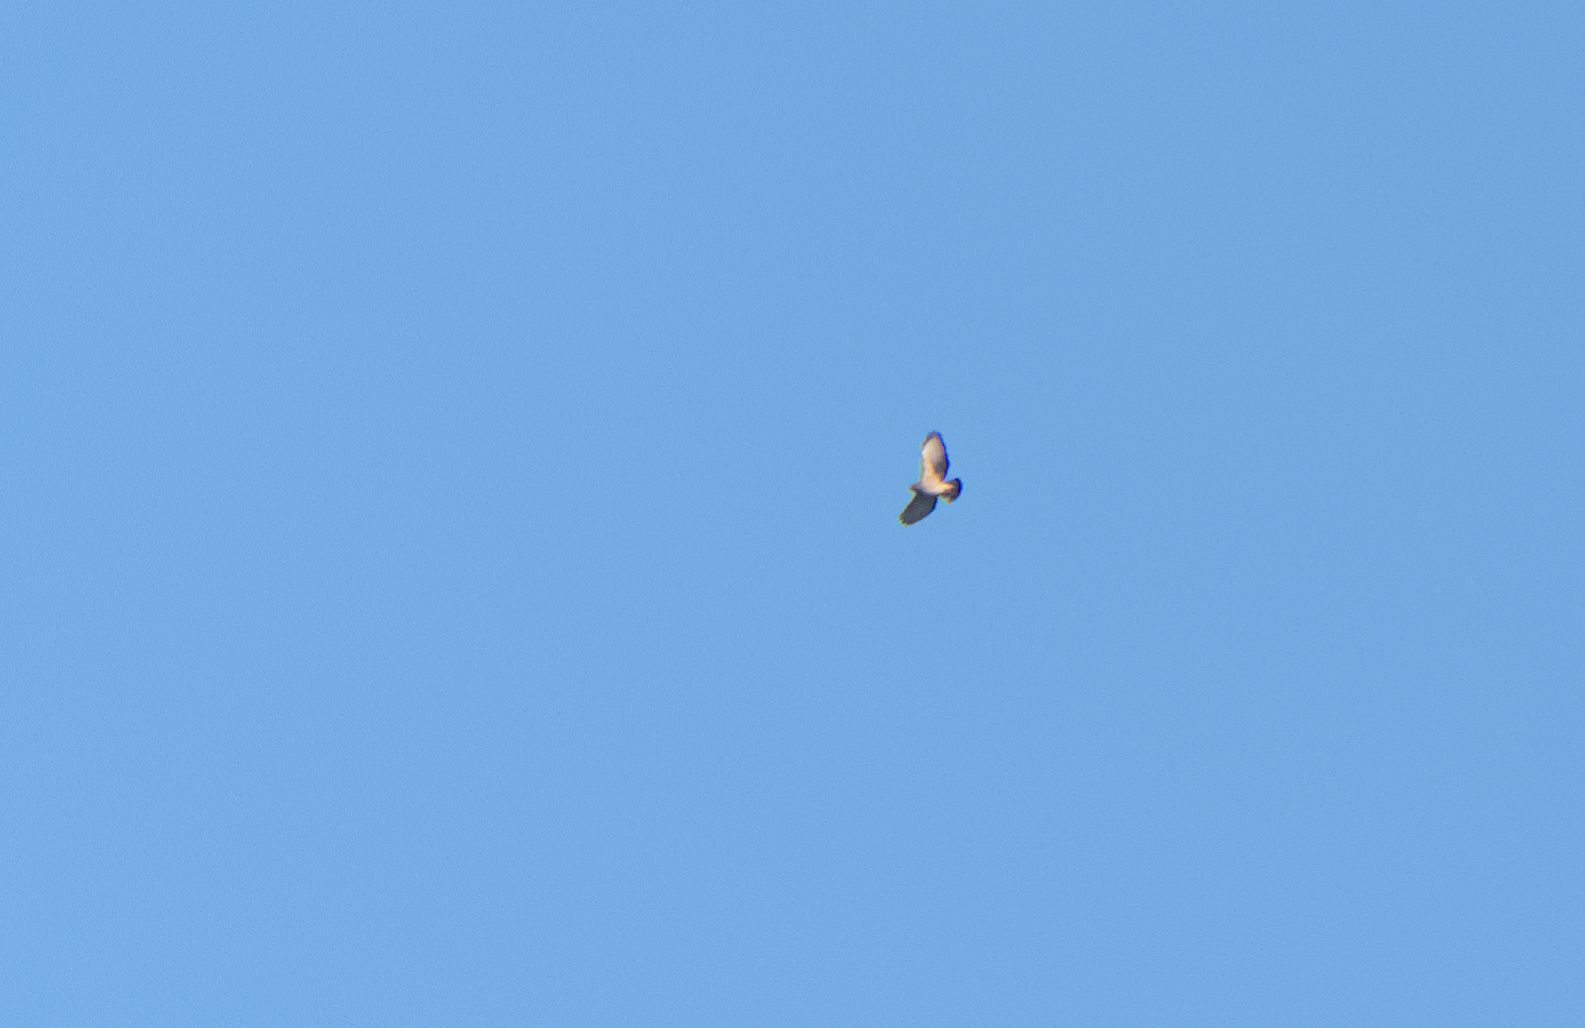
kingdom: Animalia
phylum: Chordata
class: Aves
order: Accipitriformes
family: Accipitridae
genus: Buteo
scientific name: Buteo platypterus
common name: Broad-winged hawk
